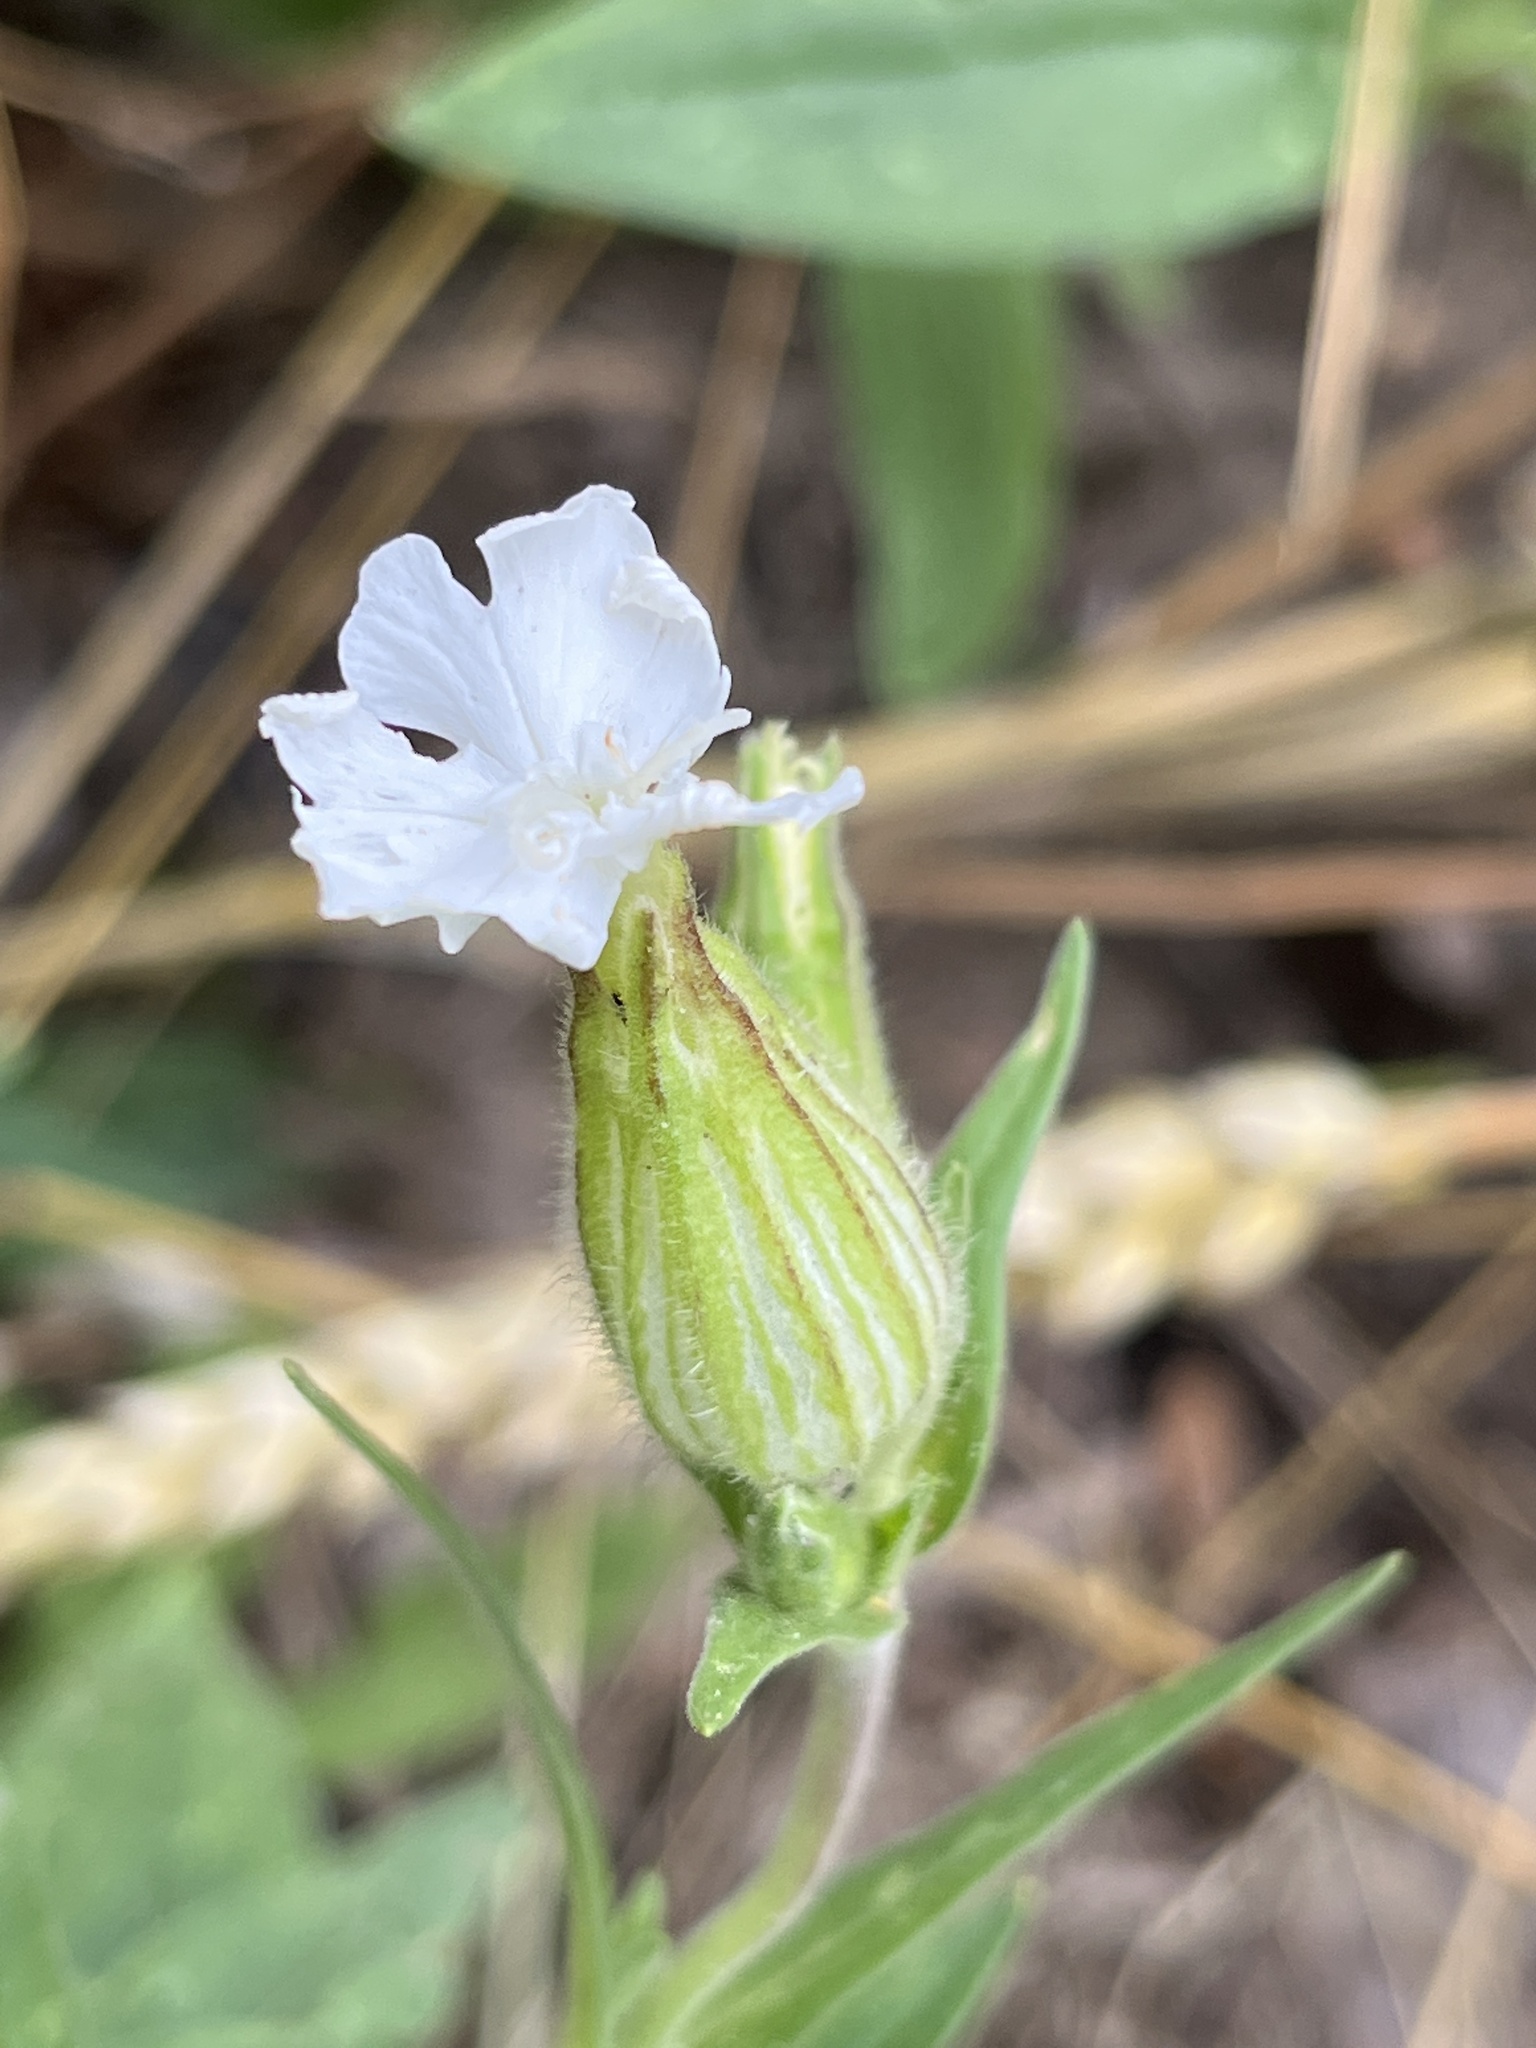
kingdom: Plantae
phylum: Tracheophyta
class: Magnoliopsida
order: Caryophyllales
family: Caryophyllaceae
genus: Silene
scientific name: Silene latifolia
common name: White campion
